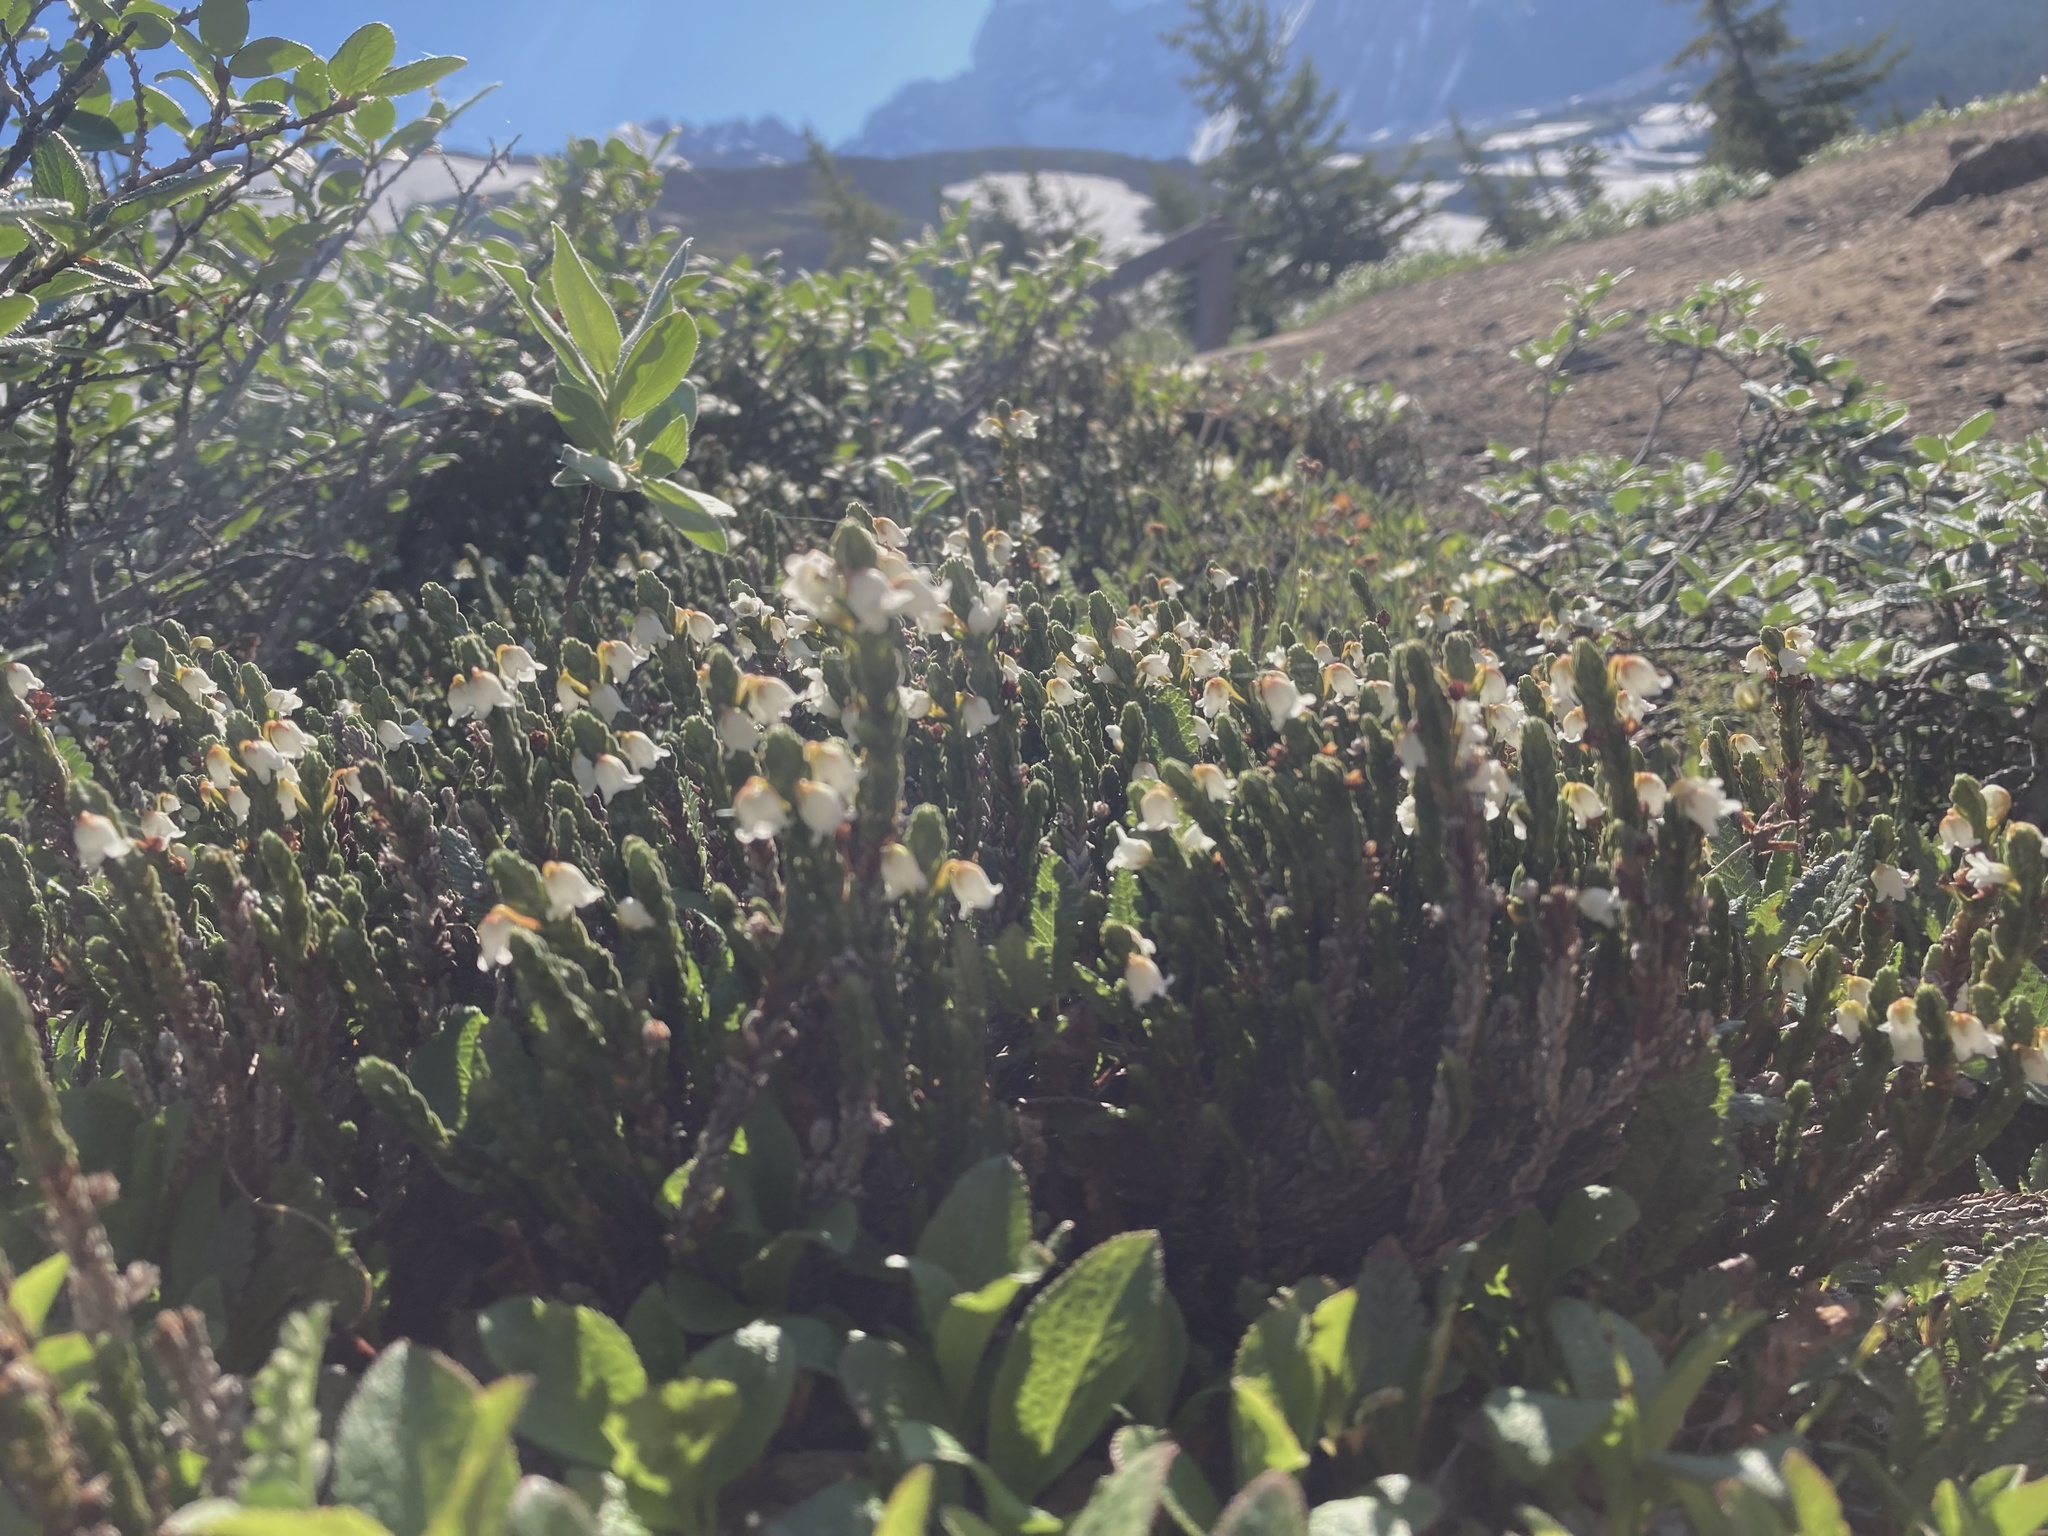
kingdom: Plantae
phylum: Tracheophyta
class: Magnoliopsida
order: Ericales
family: Ericaceae
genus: Cassiope
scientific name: Cassiope tetragona
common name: Arctic bell heather
